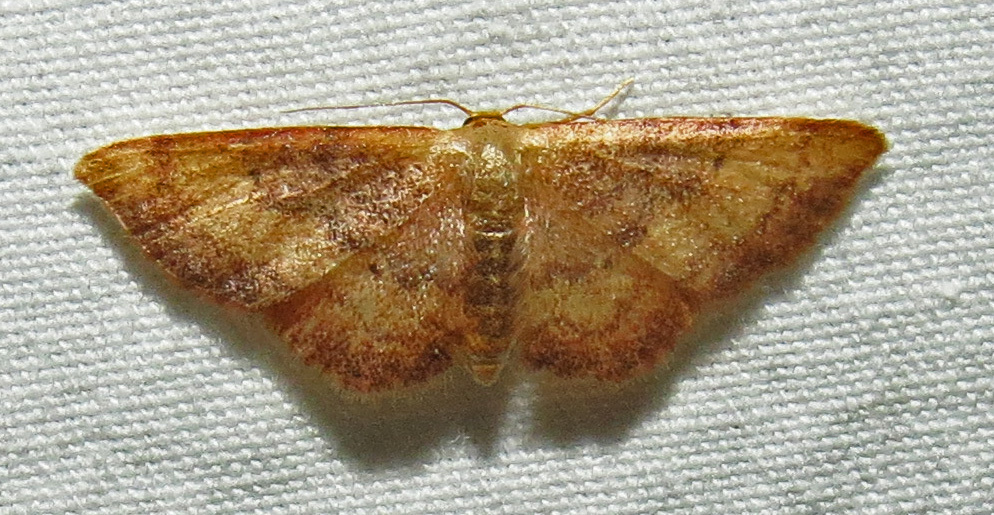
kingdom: Animalia
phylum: Arthropoda
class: Insecta
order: Lepidoptera
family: Geometridae
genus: Idaea
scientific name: Idaea demissaria
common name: Red-bordered wave
